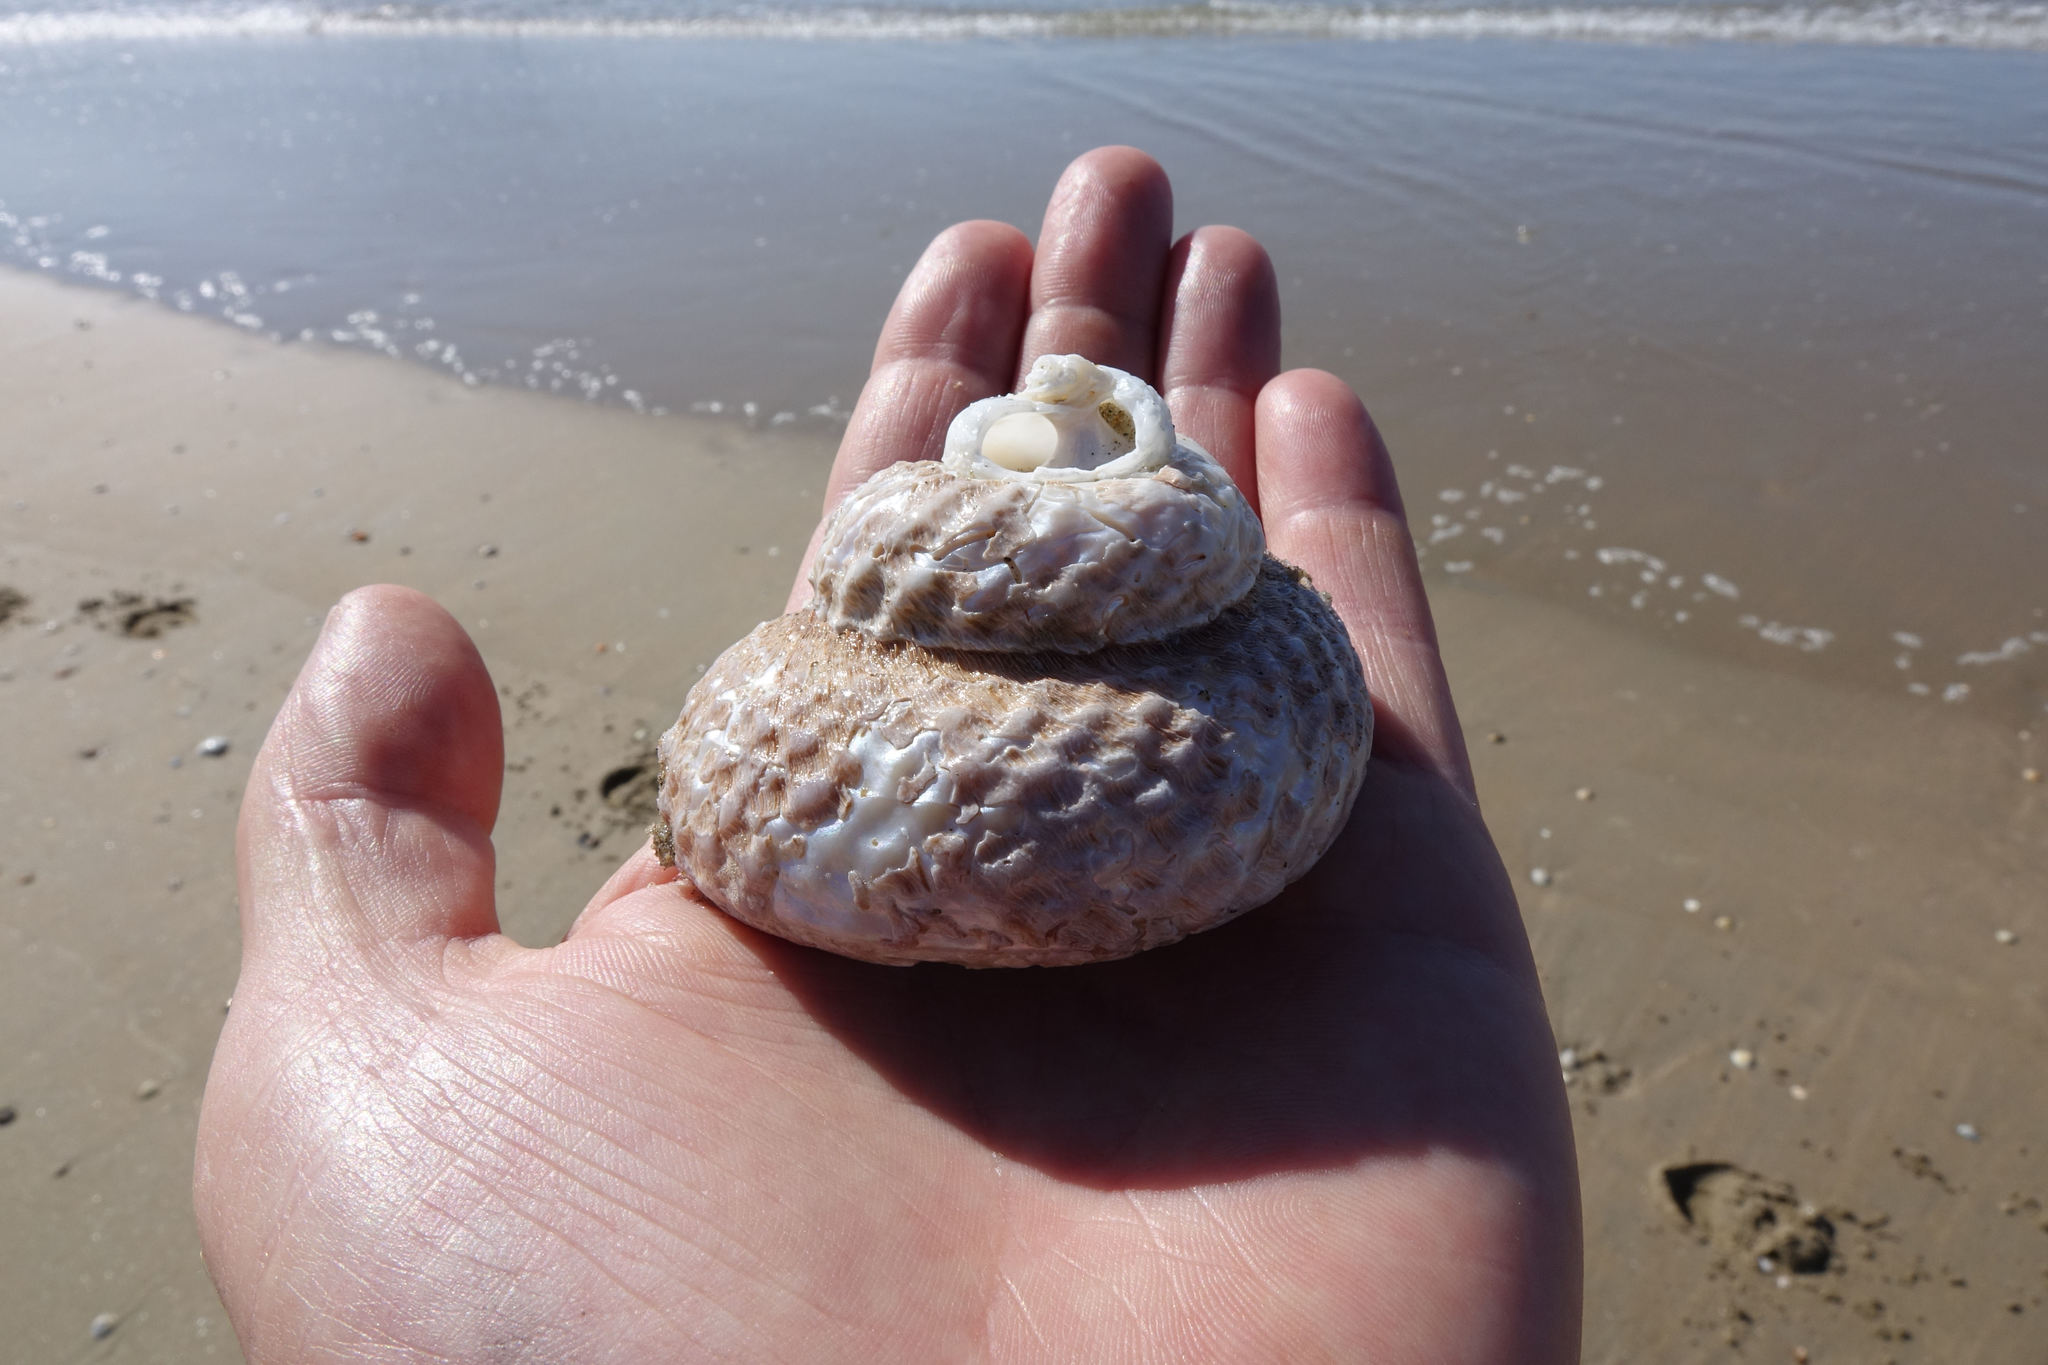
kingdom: Animalia
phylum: Mollusca
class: Gastropoda
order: Trochida
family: Turbinidae
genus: Cookia
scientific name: Cookia sulcata
